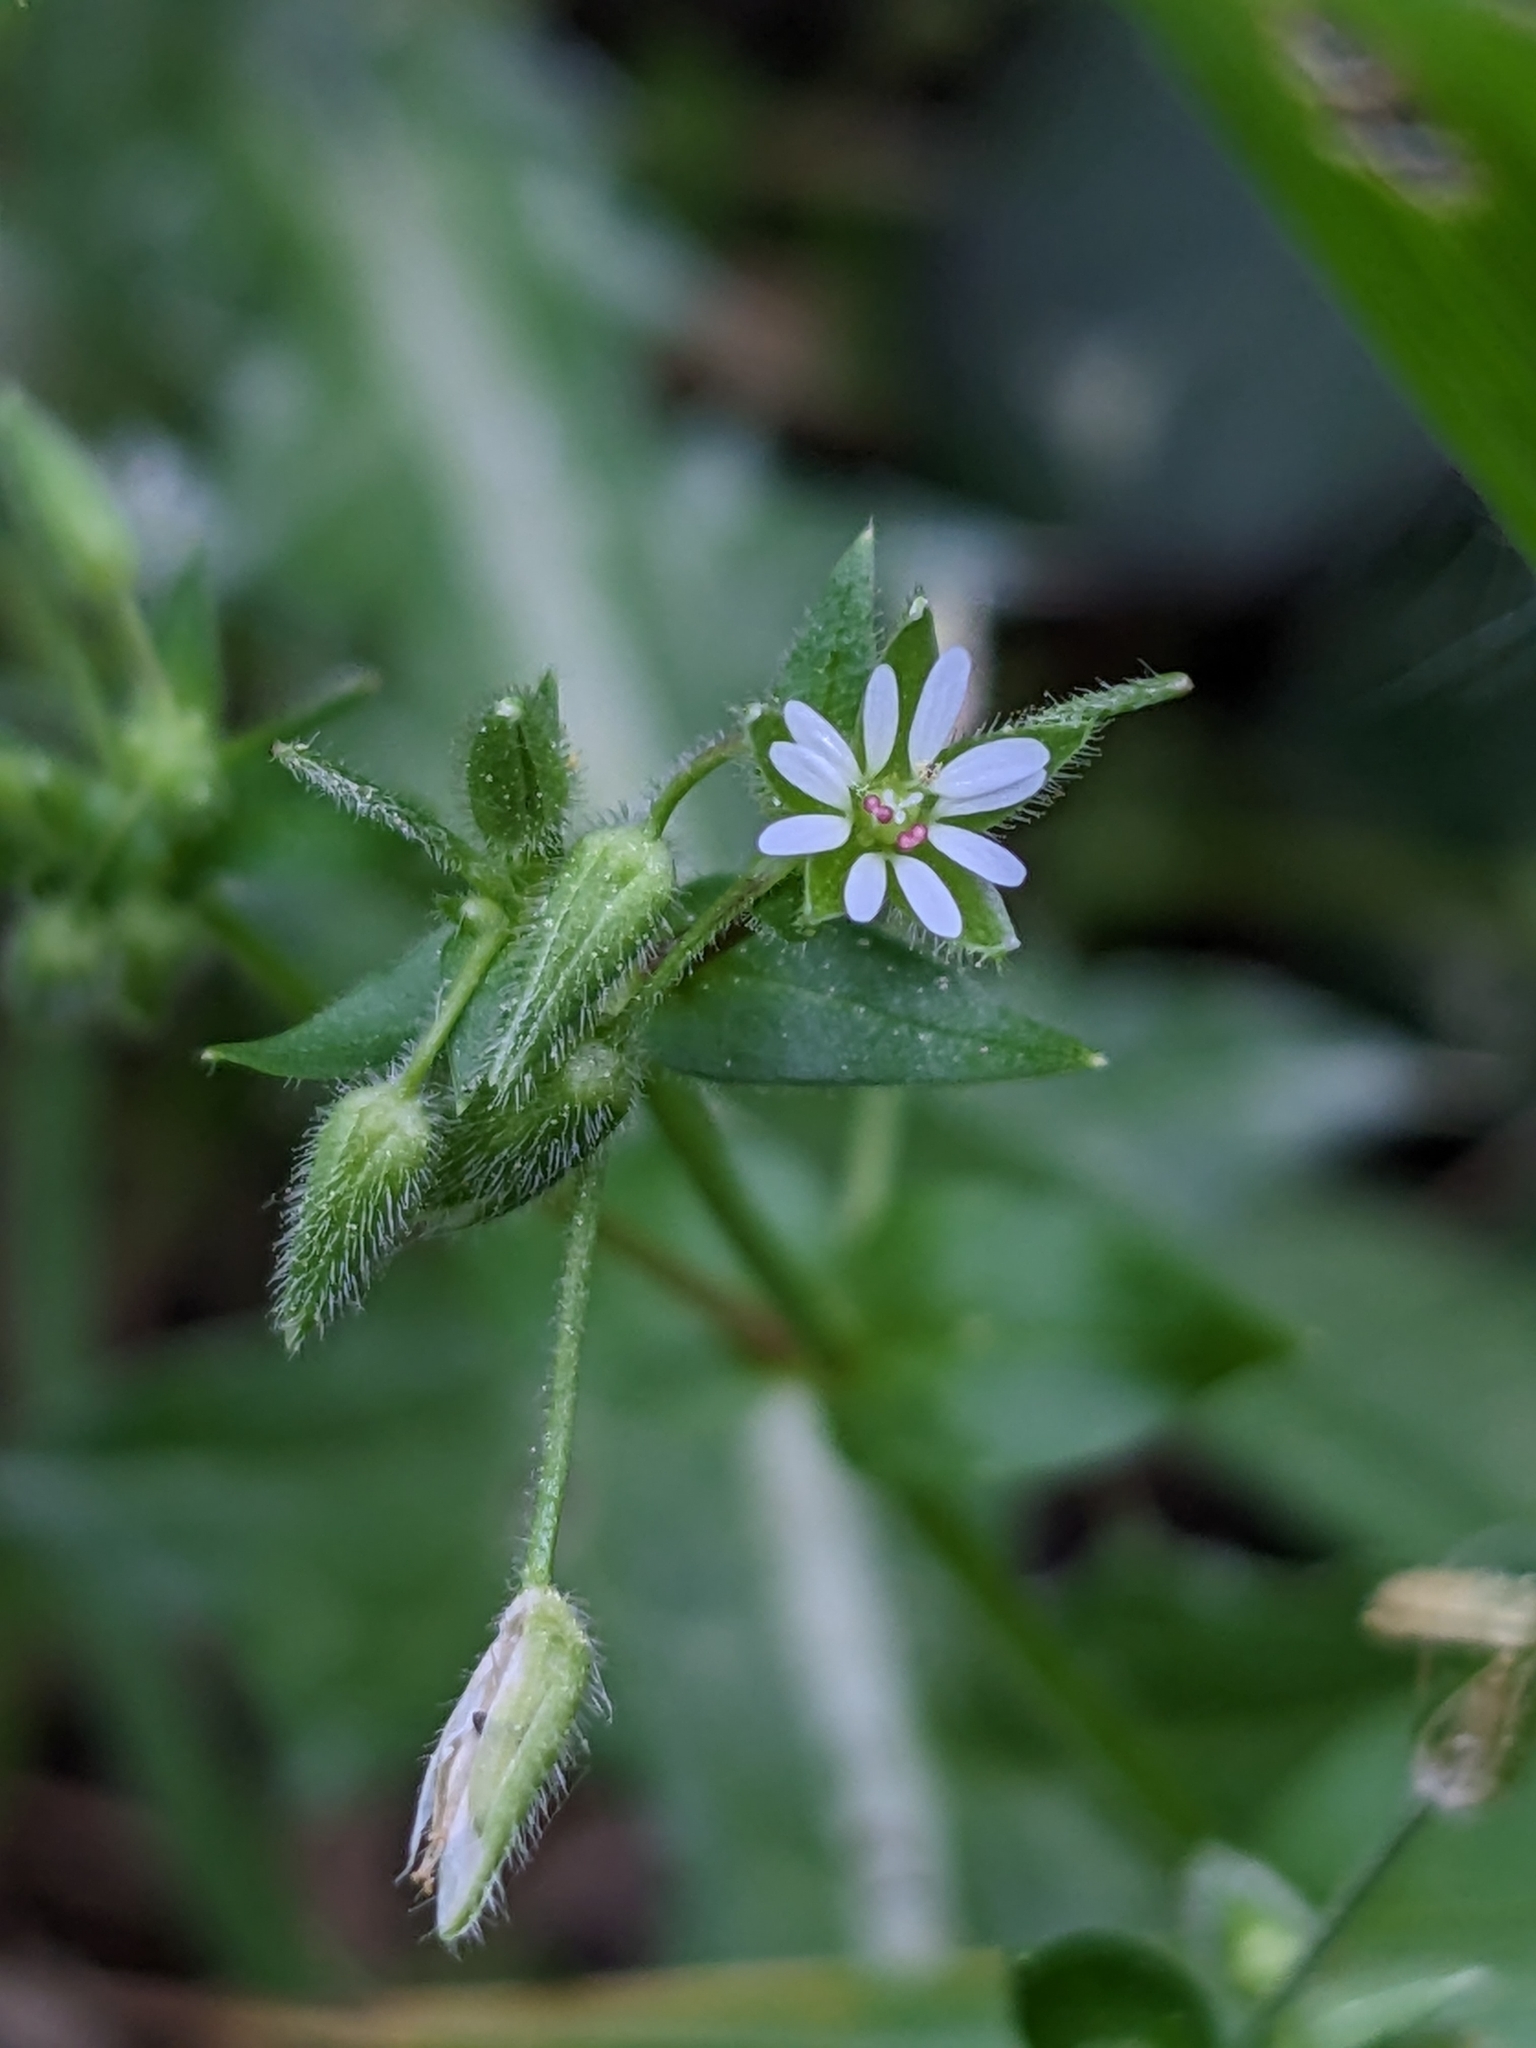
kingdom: Plantae
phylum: Tracheophyta
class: Magnoliopsida
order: Caryophyllales
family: Caryophyllaceae
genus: Stellaria
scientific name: Stellaria media
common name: Common chickweed
